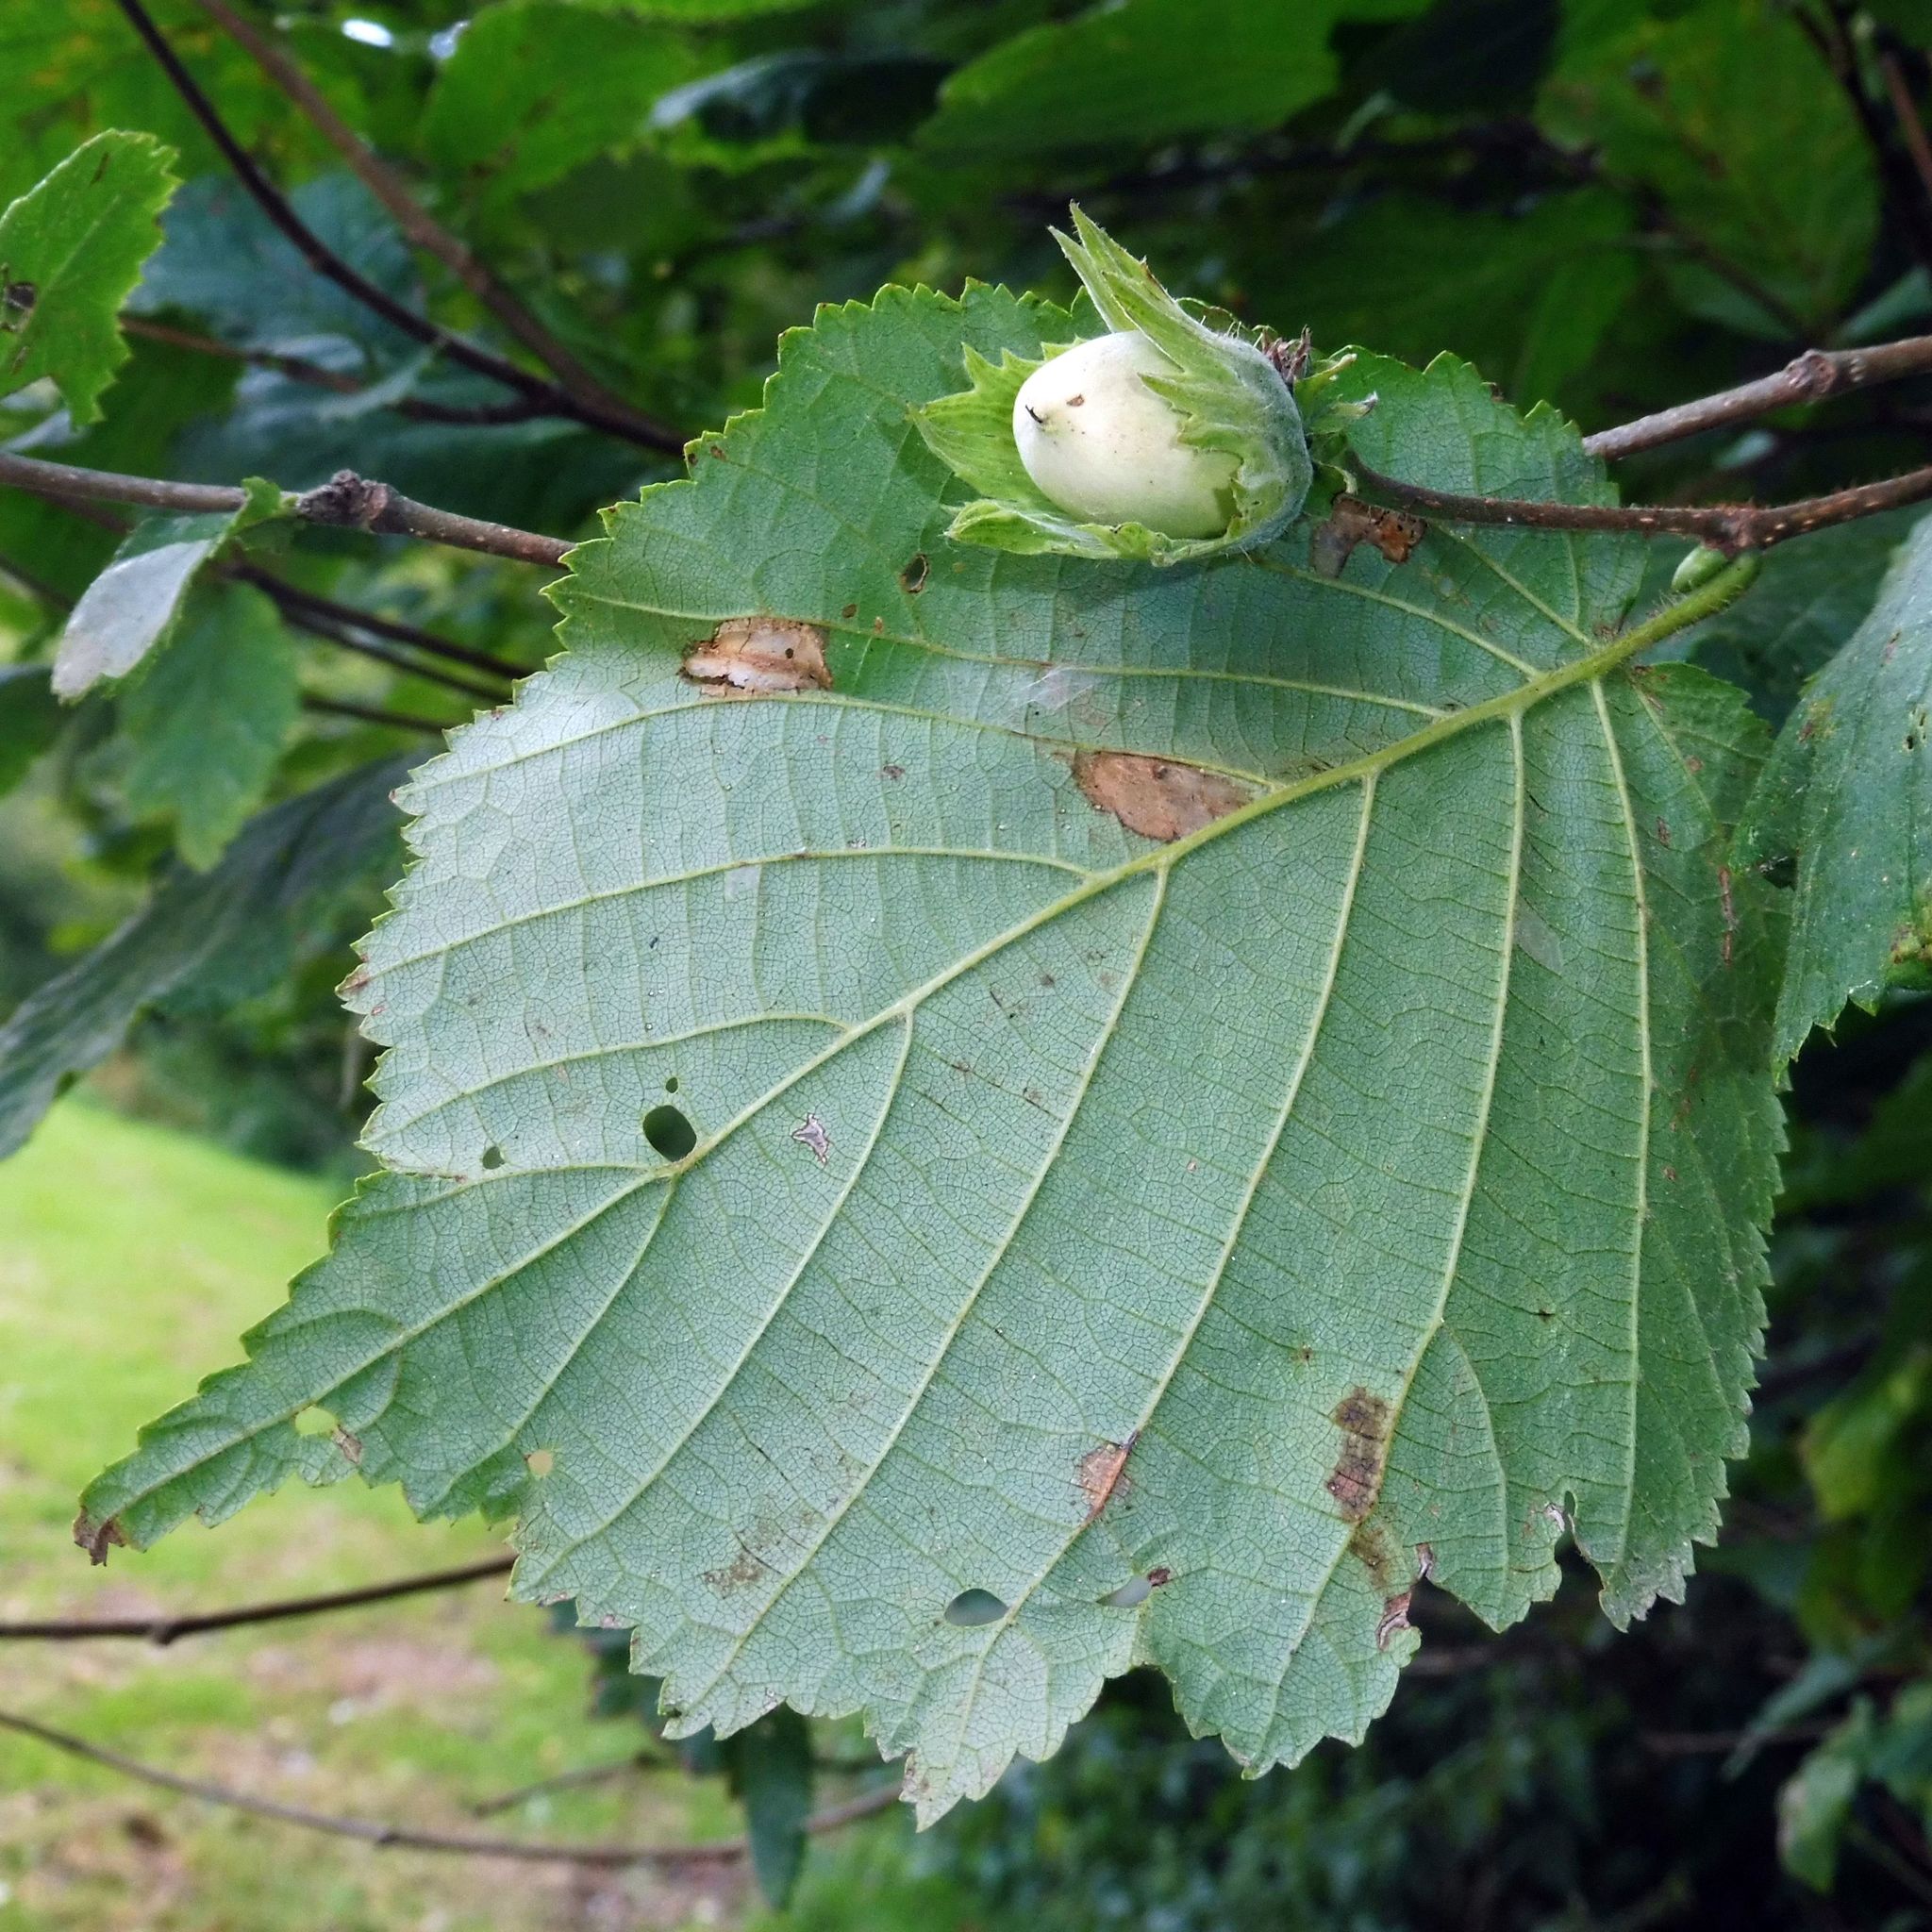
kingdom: Plantae
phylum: Tracheophyta
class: Magnoliopsida
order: Fagales
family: Betulaceae
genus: Corylus
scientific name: Corylus avellana
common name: European hazel
